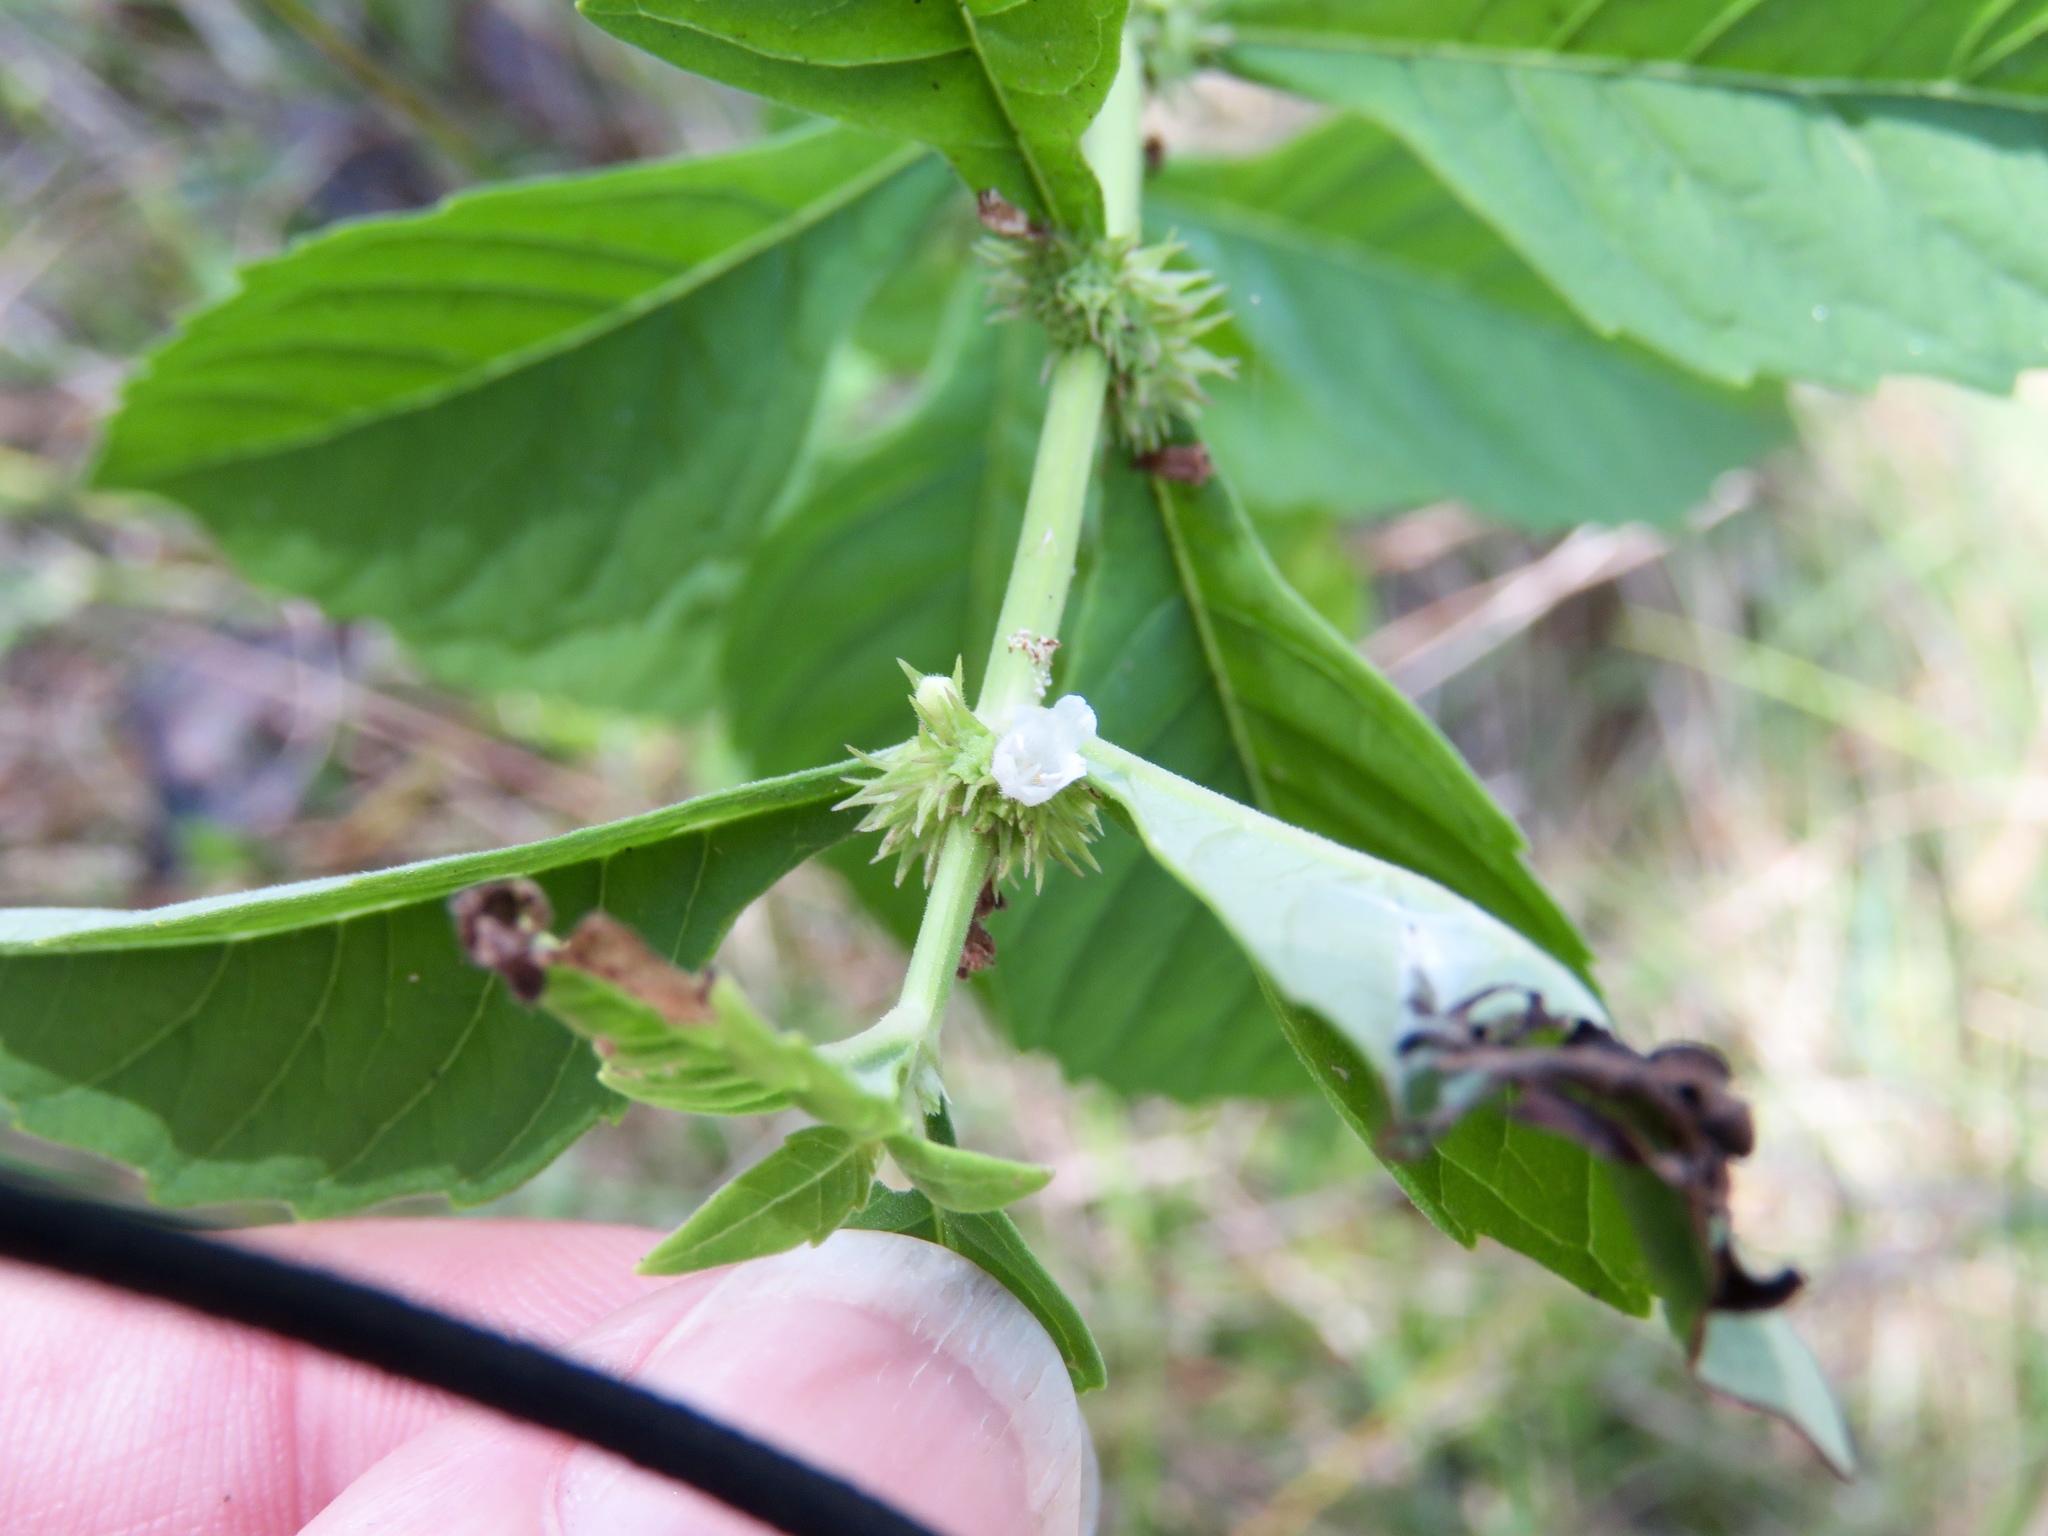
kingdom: Plantae
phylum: Tracheophyta
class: Magnoliopsida
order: Lamiales
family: Lamiaceae
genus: Lycopus
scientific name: Lycopus rubellus
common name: Stalked bugleweed
